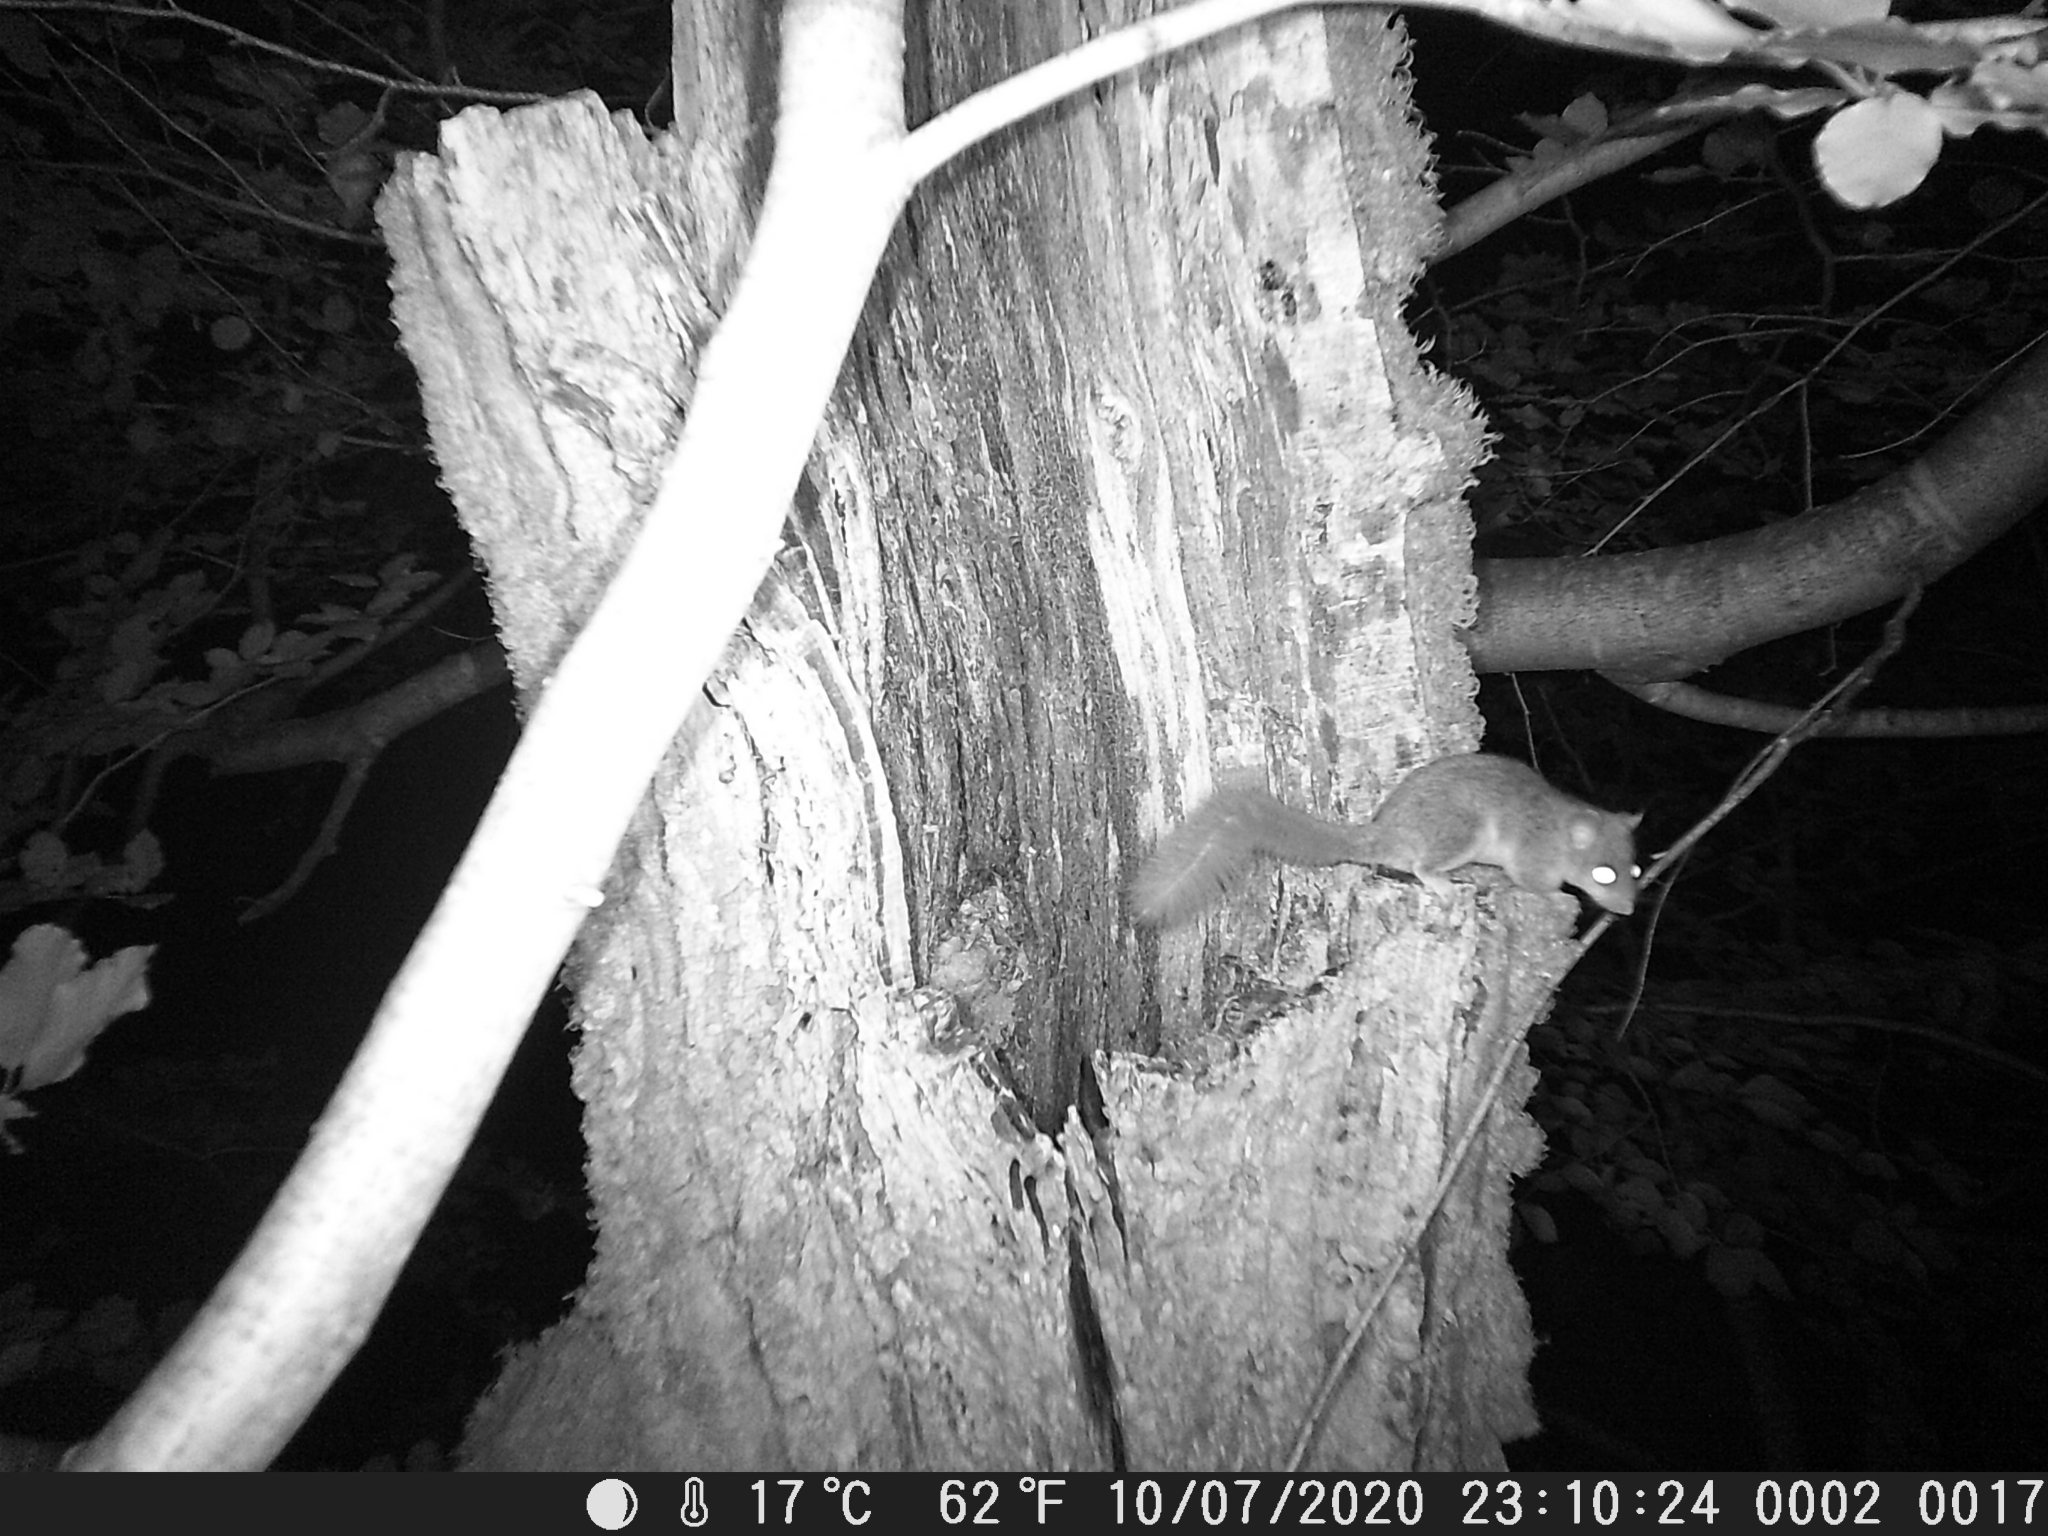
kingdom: Animalia
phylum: Chordata
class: Mammalia
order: Rodentia
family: Gliridae
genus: Glis
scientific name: Glis glis
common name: Fat dormouse
